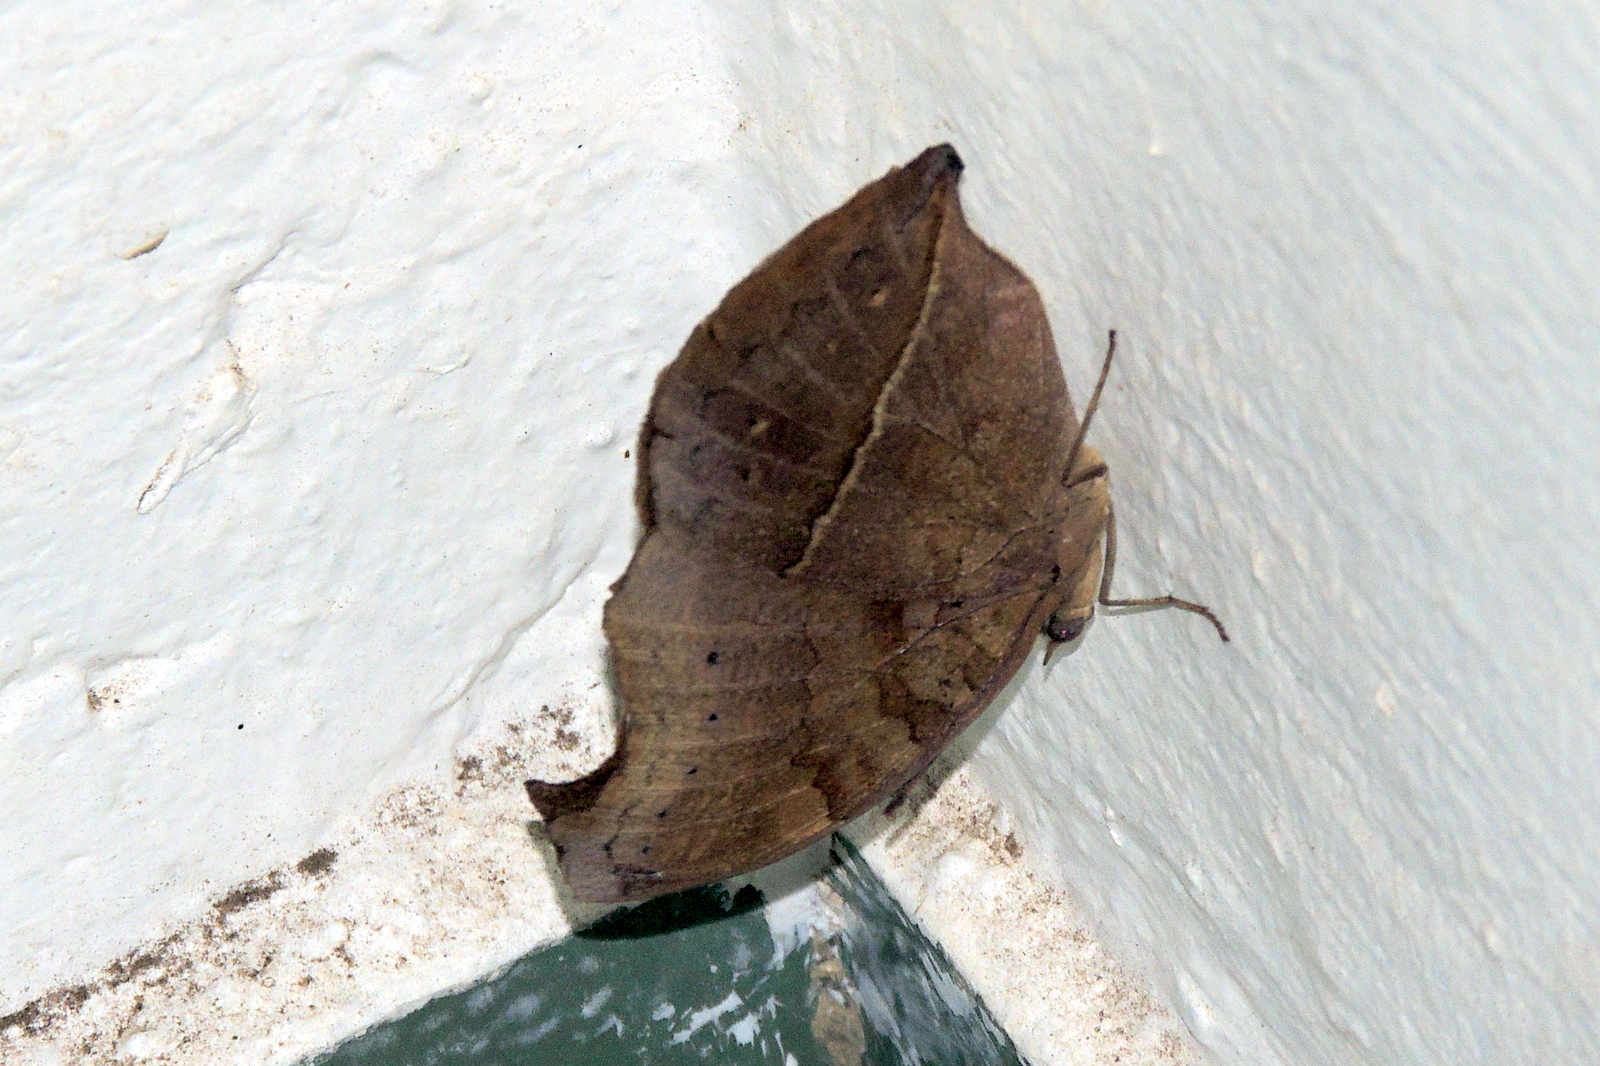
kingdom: Animalia
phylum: Arthropoda
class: Insecta
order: Lepidoptera
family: Nymphalidae
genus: Junonia
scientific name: Junonia iphita
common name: Chocolate pansy
